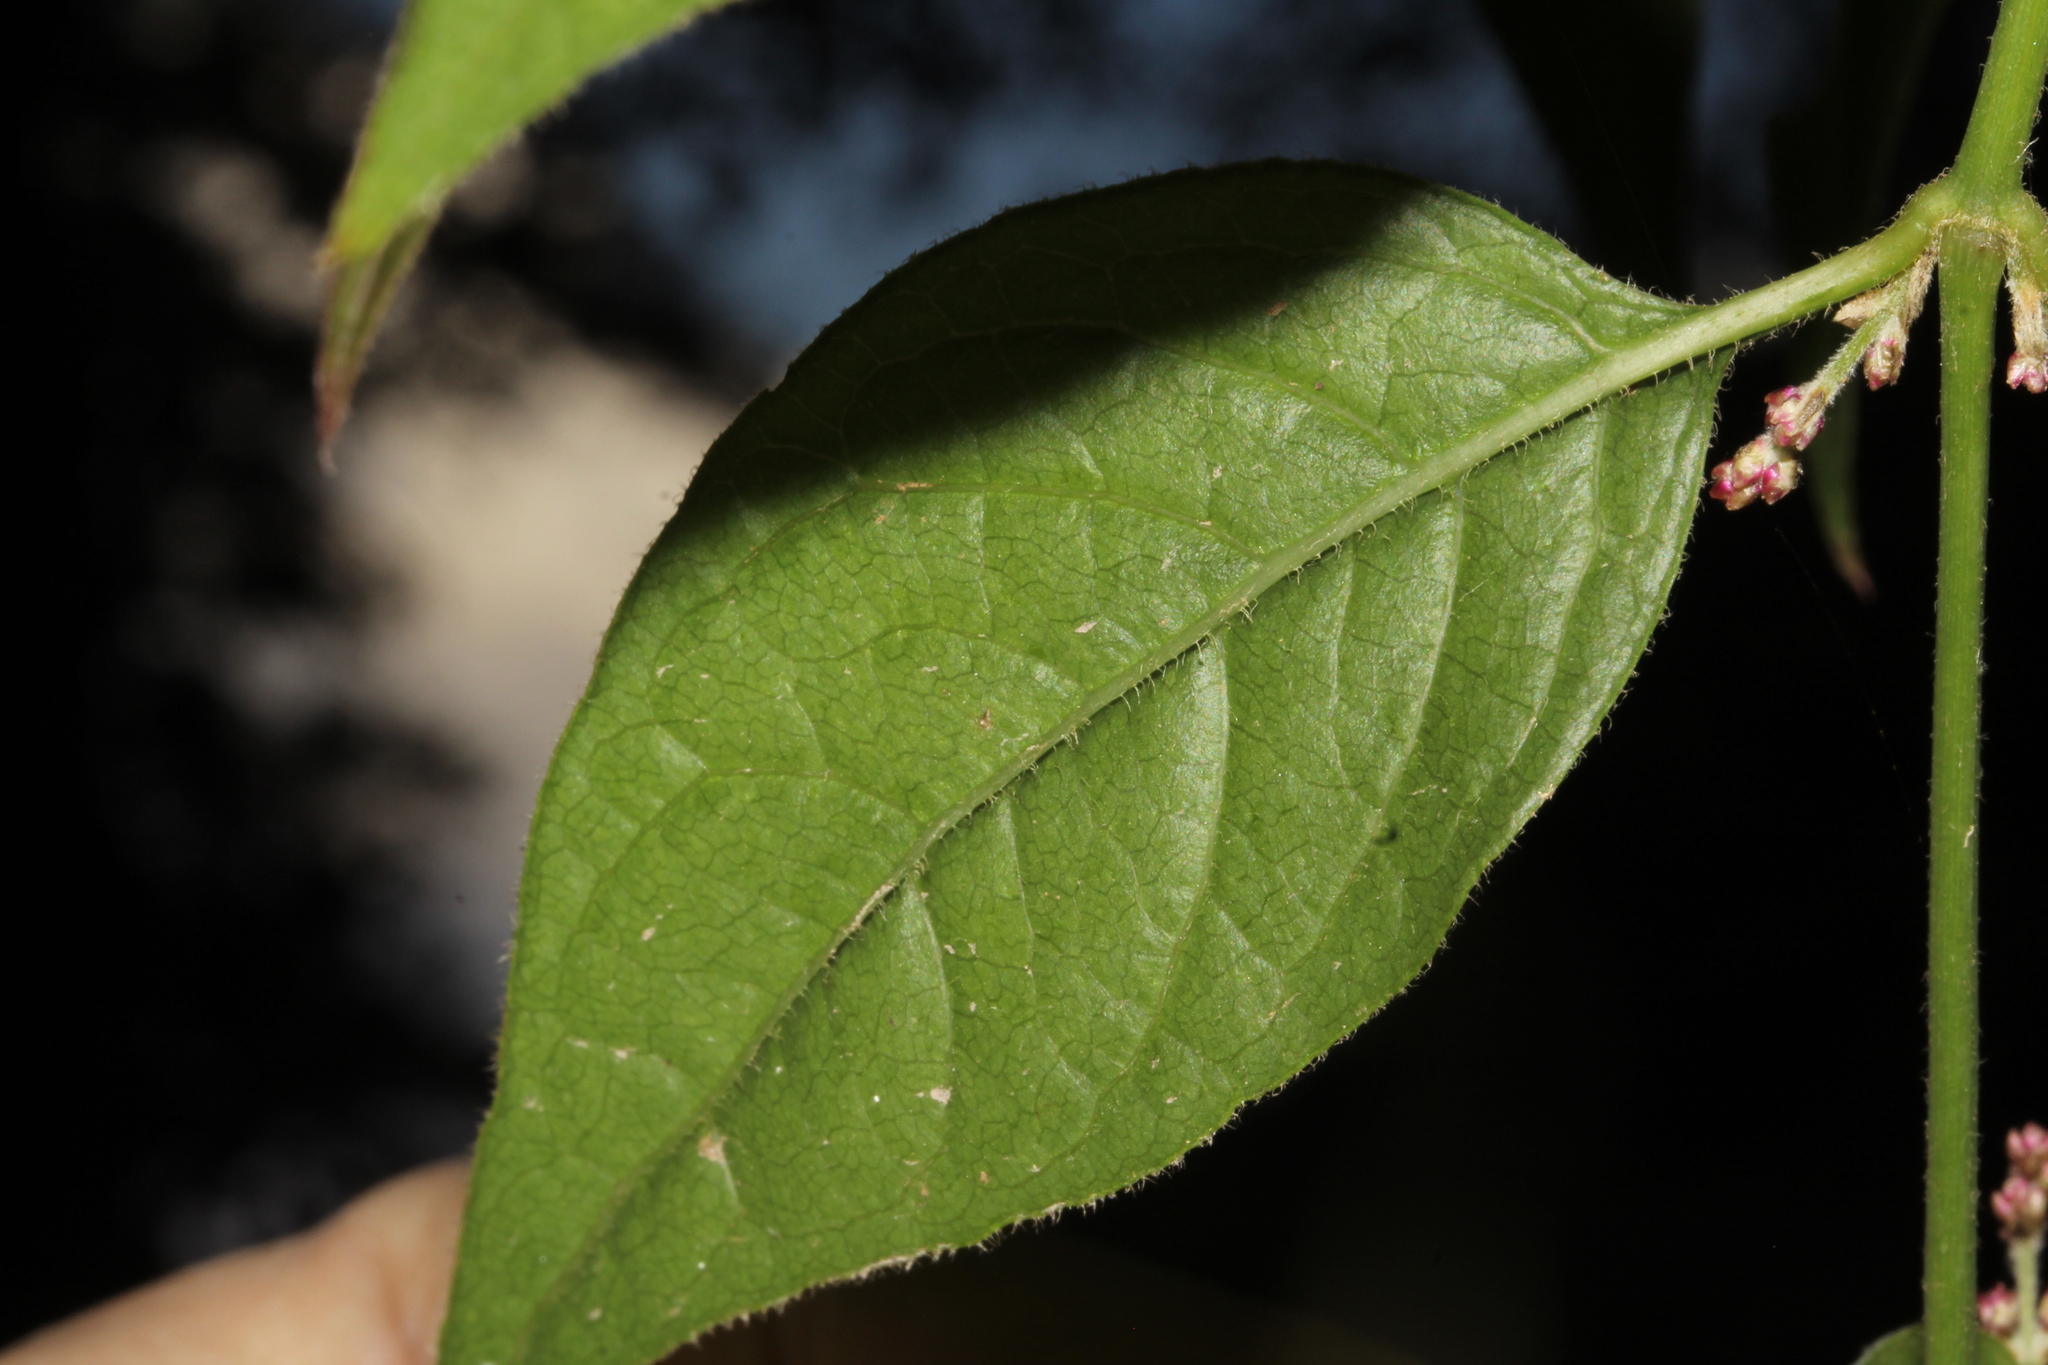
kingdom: Plantae
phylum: Tracheophyta
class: Magnoliopsida
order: Caryophyllales
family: Amaranthaceae
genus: Iresine
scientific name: Iresine ajuscana
